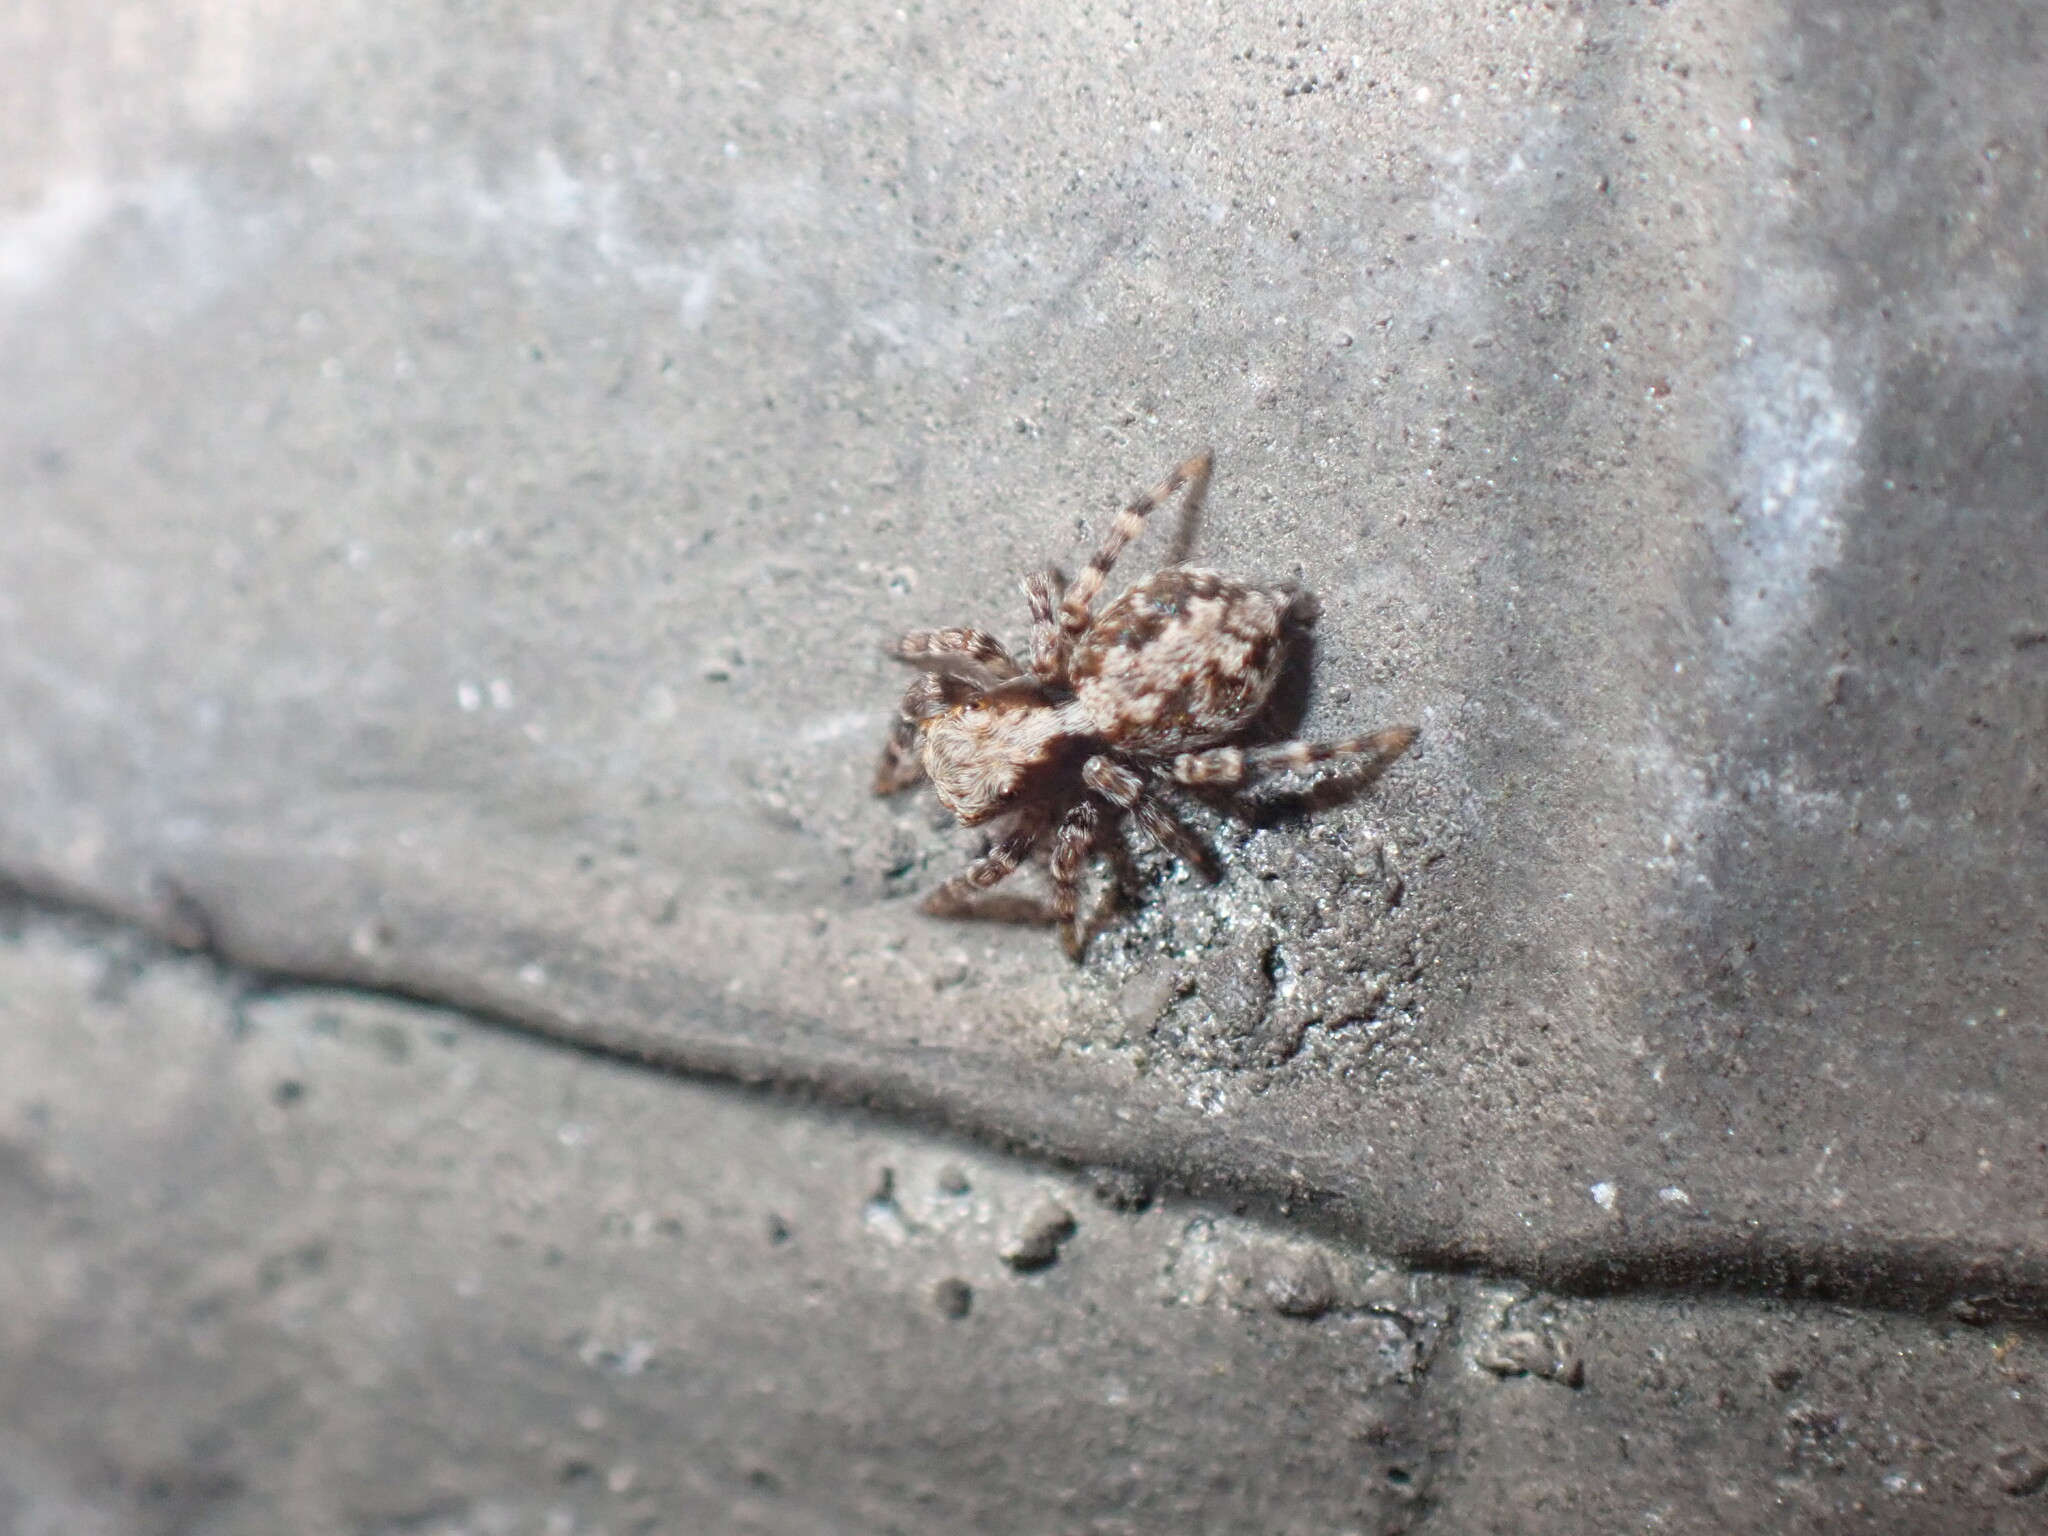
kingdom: Animalia
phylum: Arthropoda
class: Arachnida
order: Araneae
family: Salticidae
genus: Pseudeuophrys
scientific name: Pseudeuophrys lanigera
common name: Jumping spider
